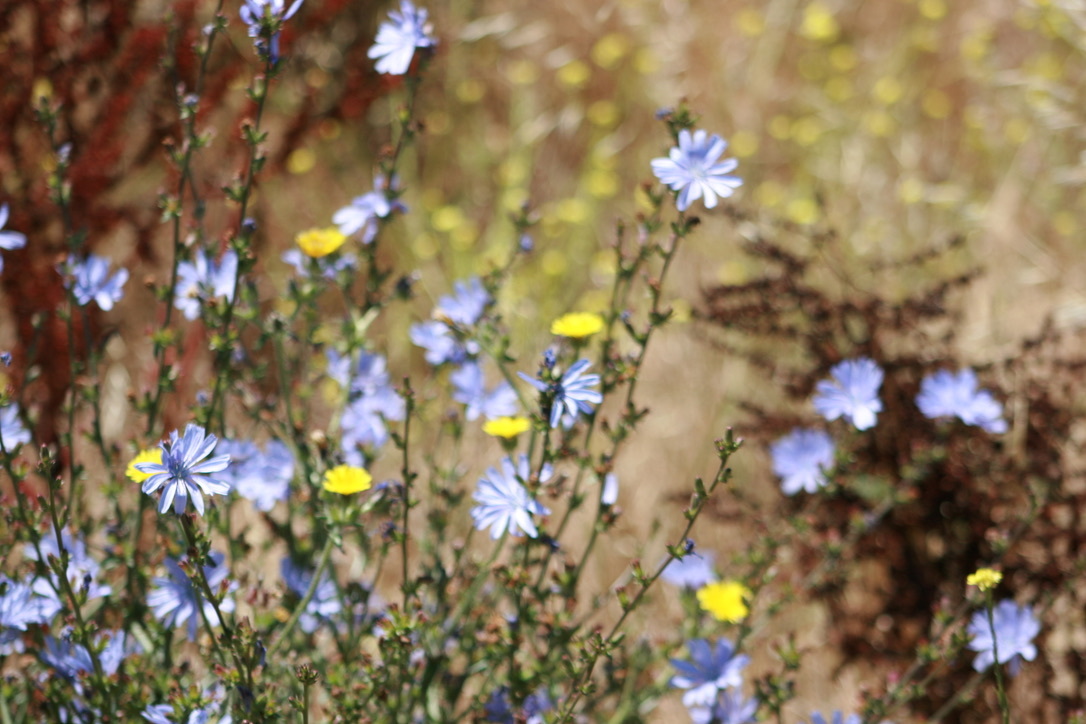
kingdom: Plantae
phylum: Tracheophyta
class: Magnoliopsida
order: Asterales
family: Asteraceae
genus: Cichorium
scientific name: Cichorium intybus
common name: Chicory
